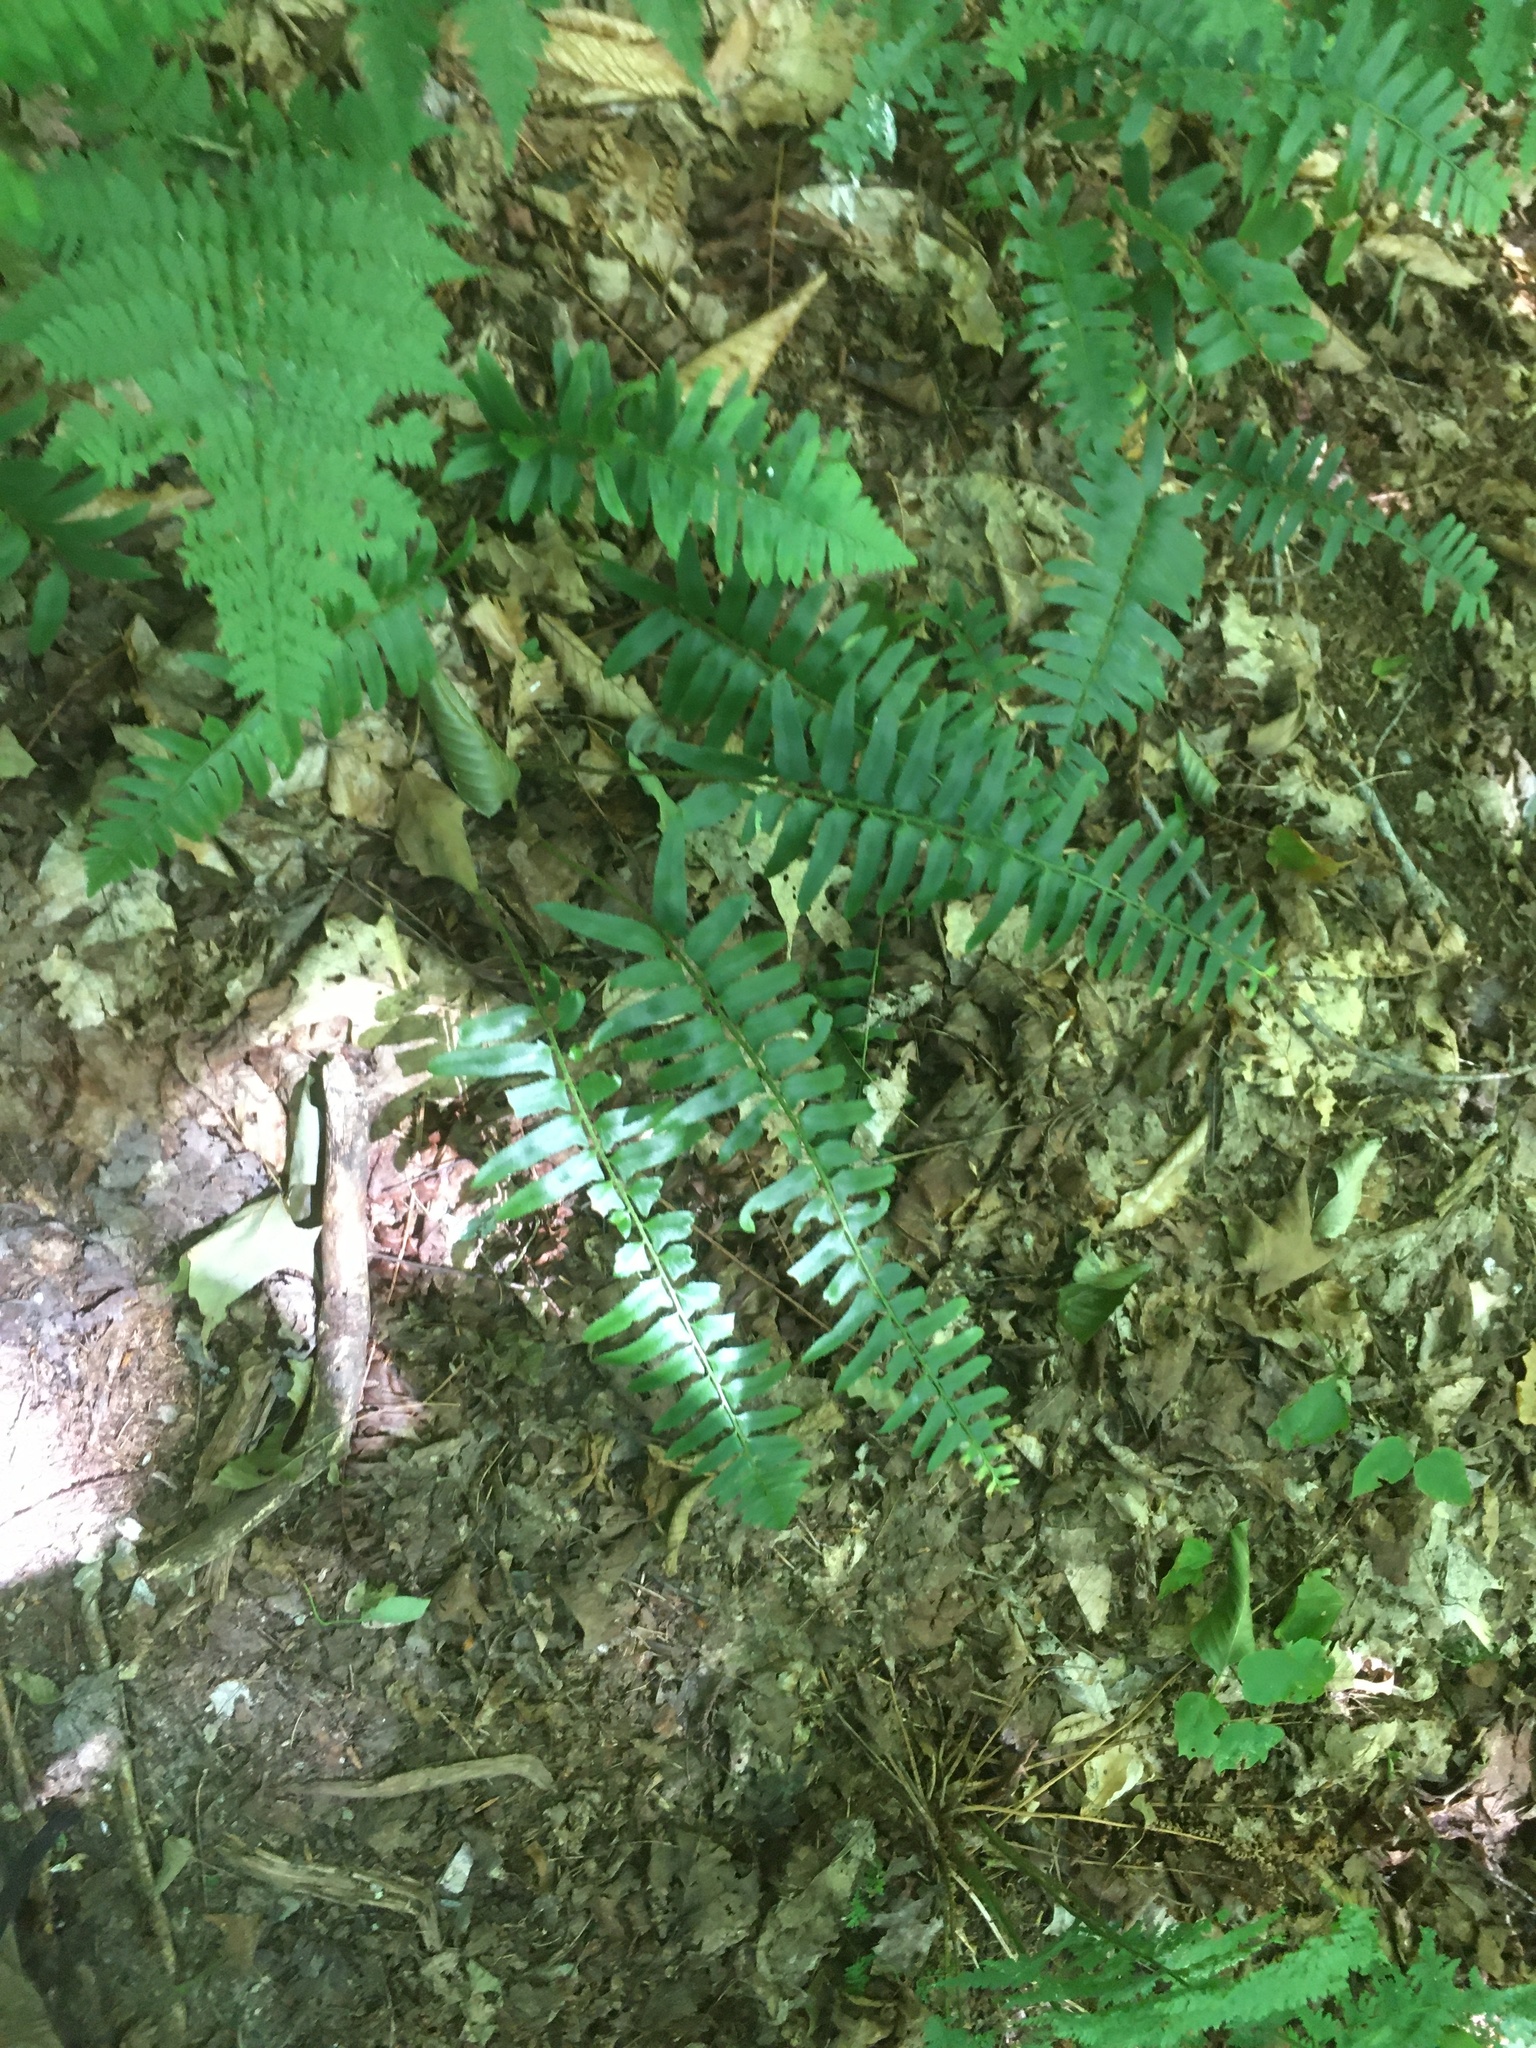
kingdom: Plantae
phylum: Tracheophyta
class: Polypodiopsida
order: Polypodiales
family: Dryopteridaceae
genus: Polystichum
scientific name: Polystichum acrostichoides
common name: Christmas fern
